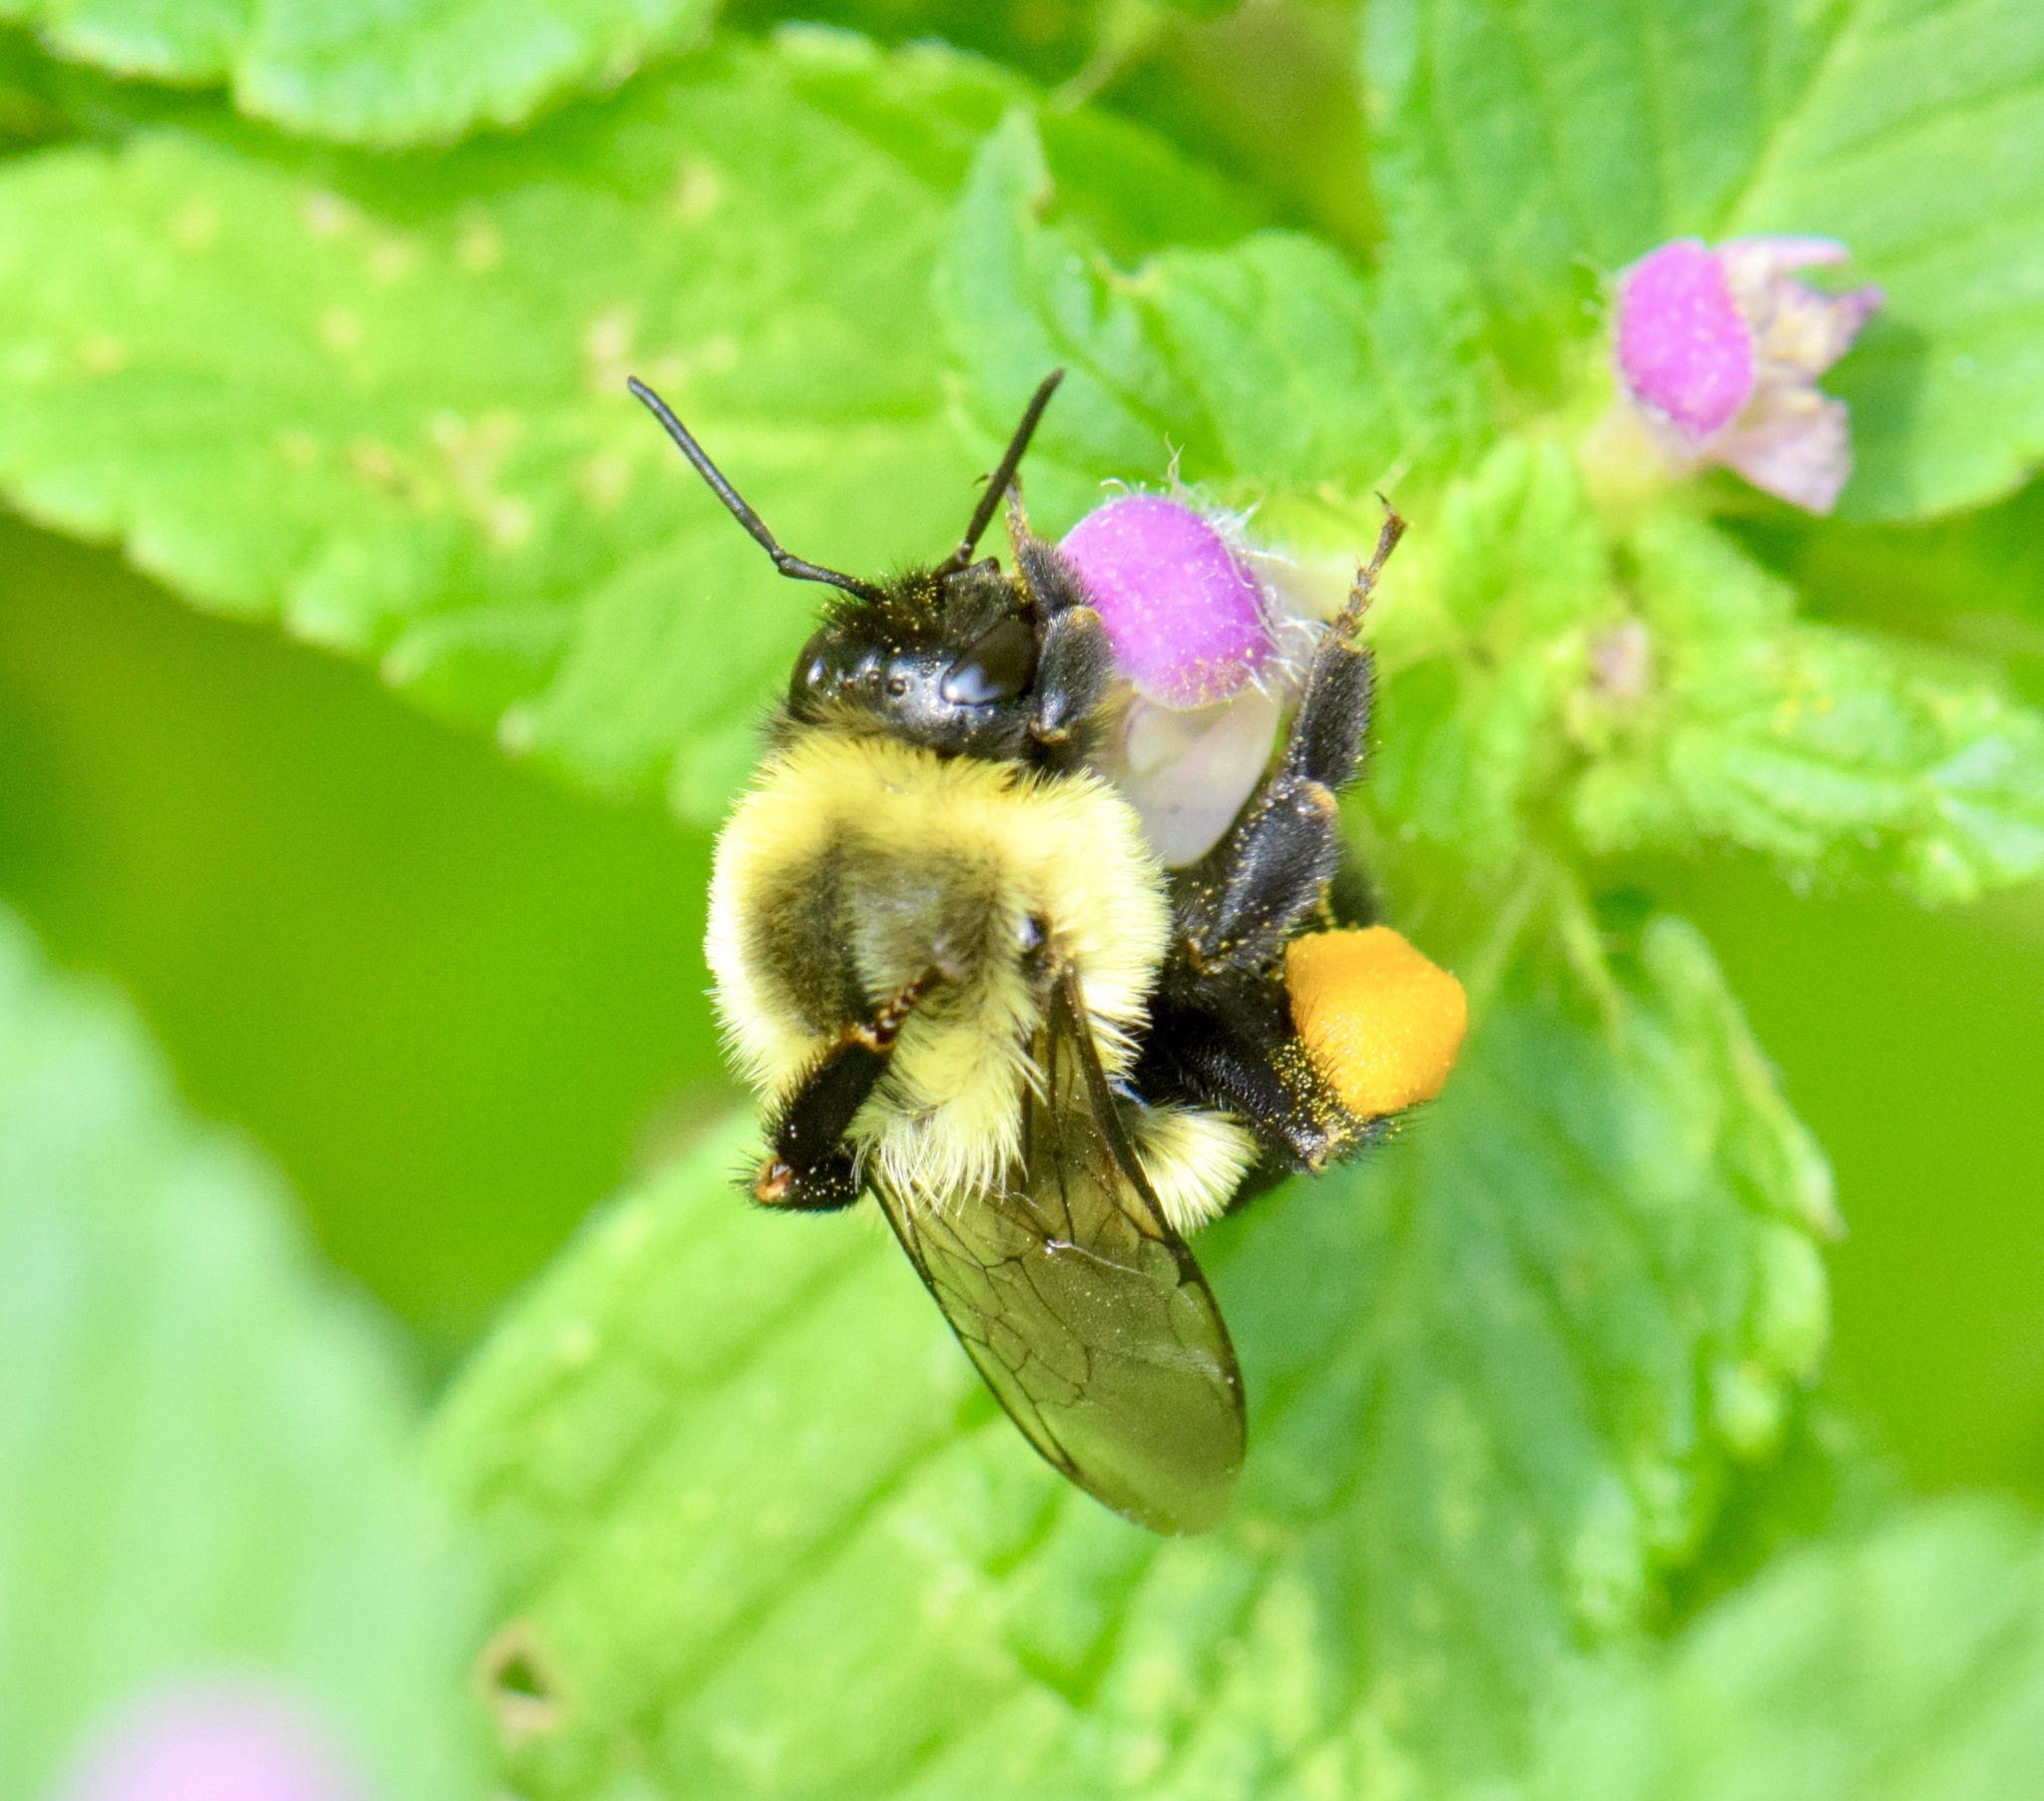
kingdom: Animalia
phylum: Arthropoda
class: Insecta
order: Hymenoptera
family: Apidae
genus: Bombus
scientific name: Bombus impatiens
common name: Common eastern bumble bee
